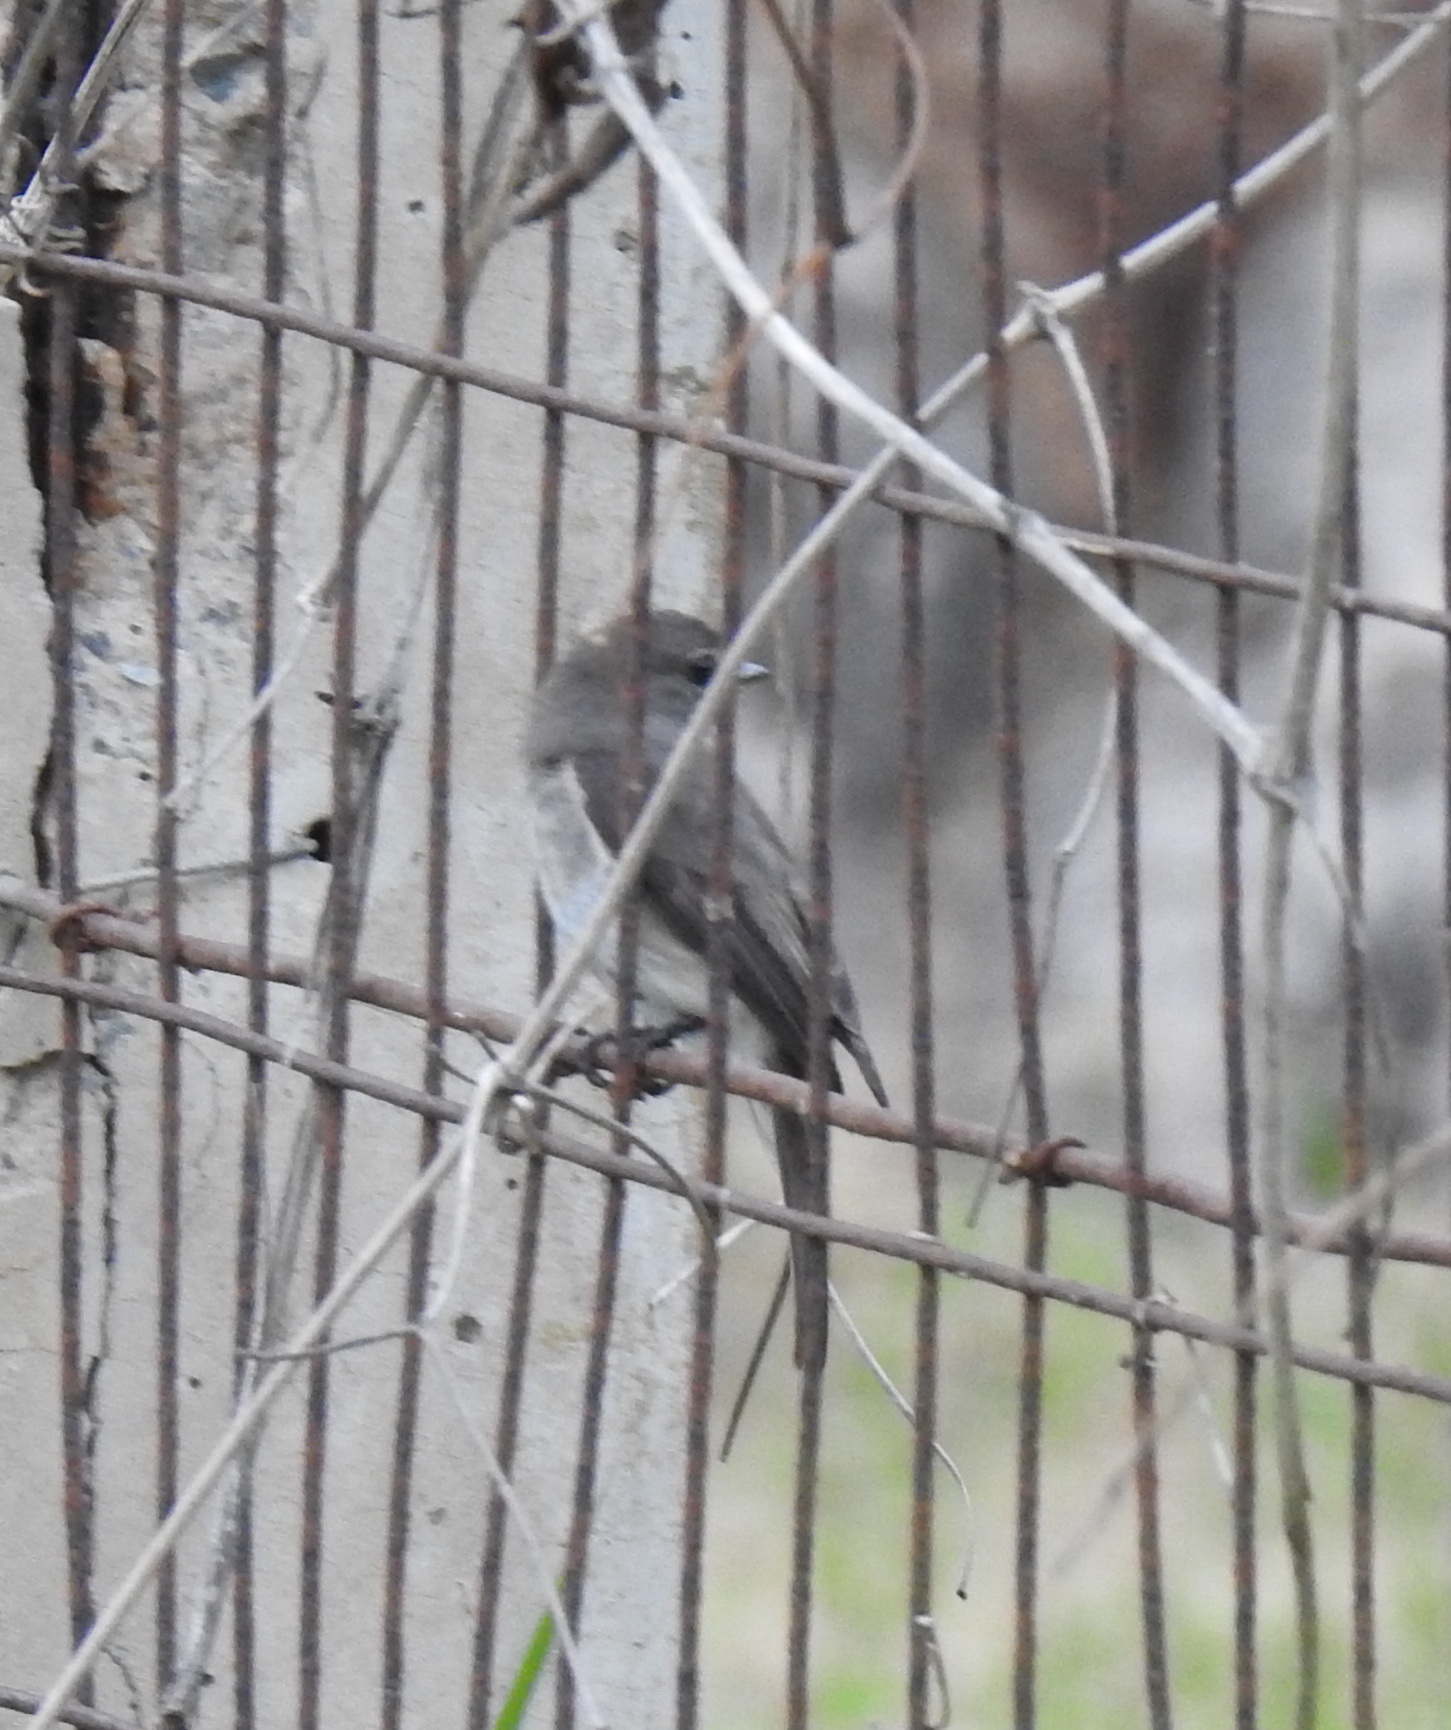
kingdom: Animalia
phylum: Chordata
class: Aves
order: Passeriformes
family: Muscicapidae
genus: Muscicapa
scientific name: Muscicapa adusta
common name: African dusky flycatcher
